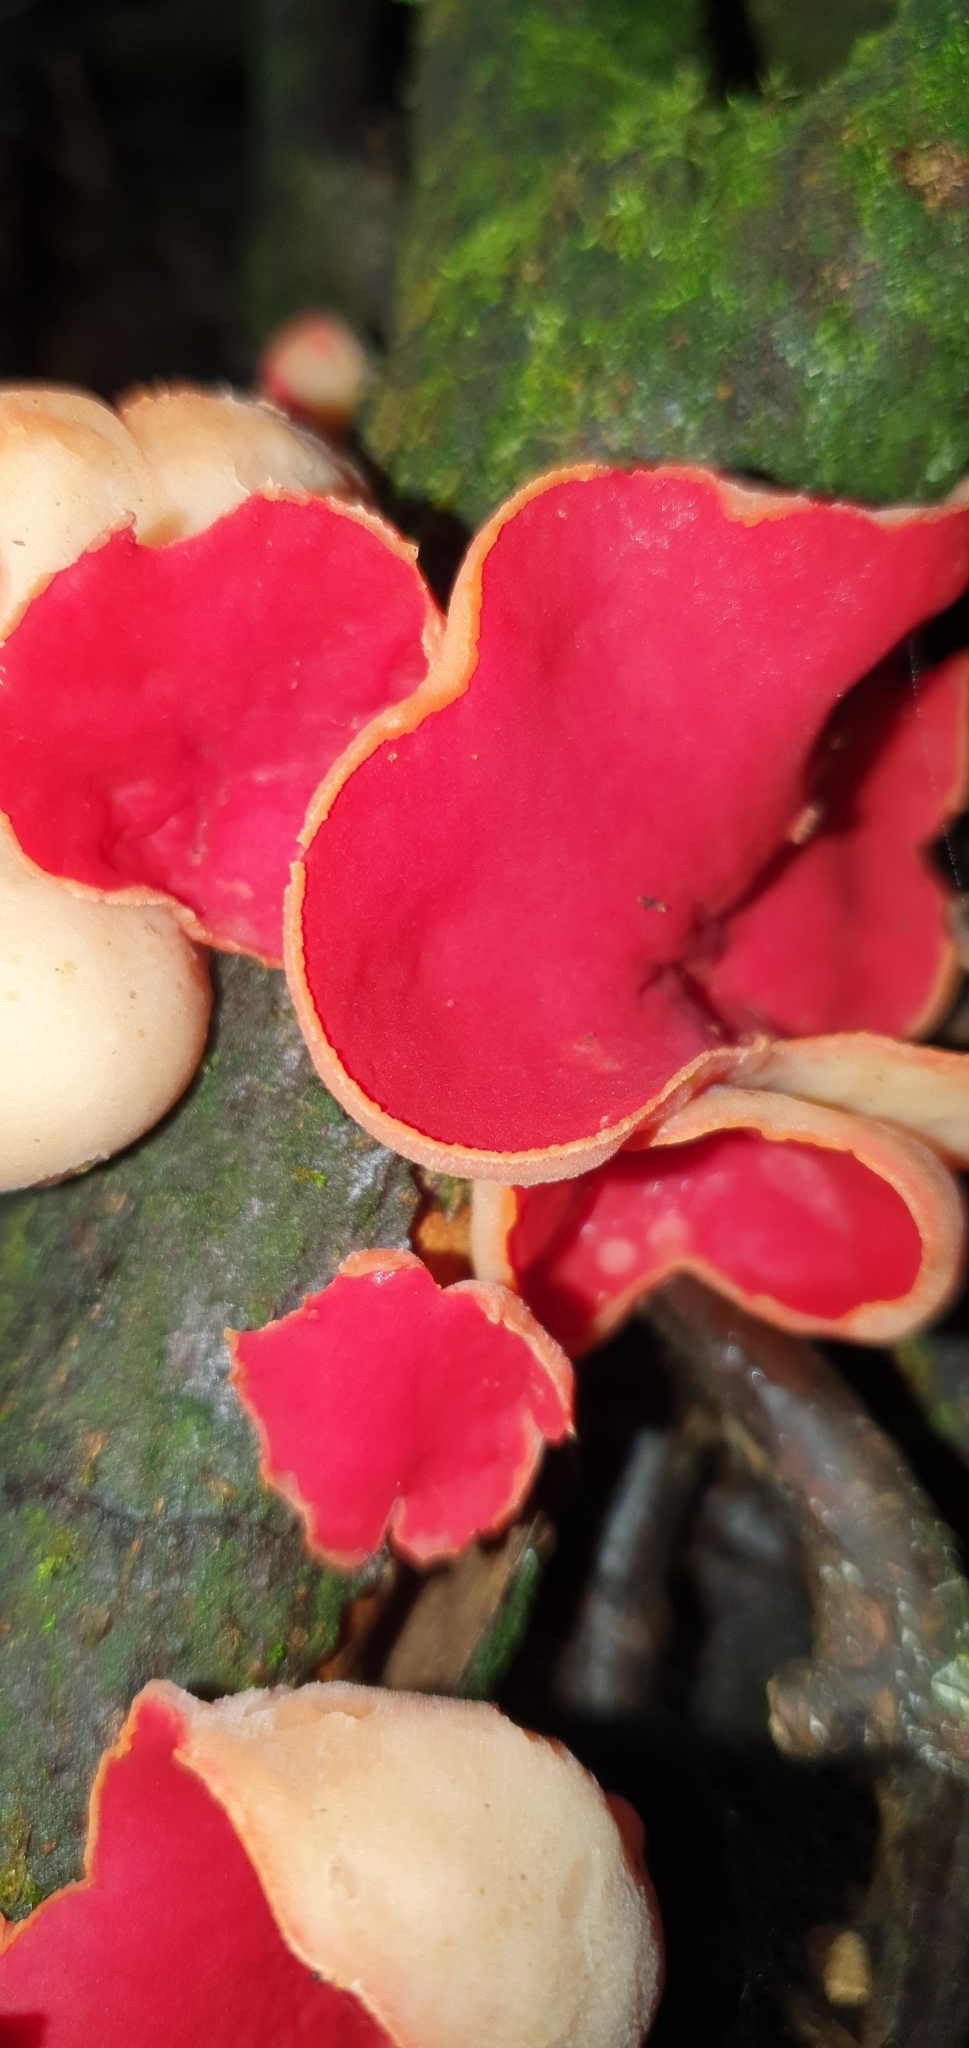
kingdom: Fungi
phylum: Ascomycota
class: Pezizomycetes
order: Pezizales
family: Sarcoscyphaceae
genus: Sarcoscypha
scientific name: Sarcoscypha
